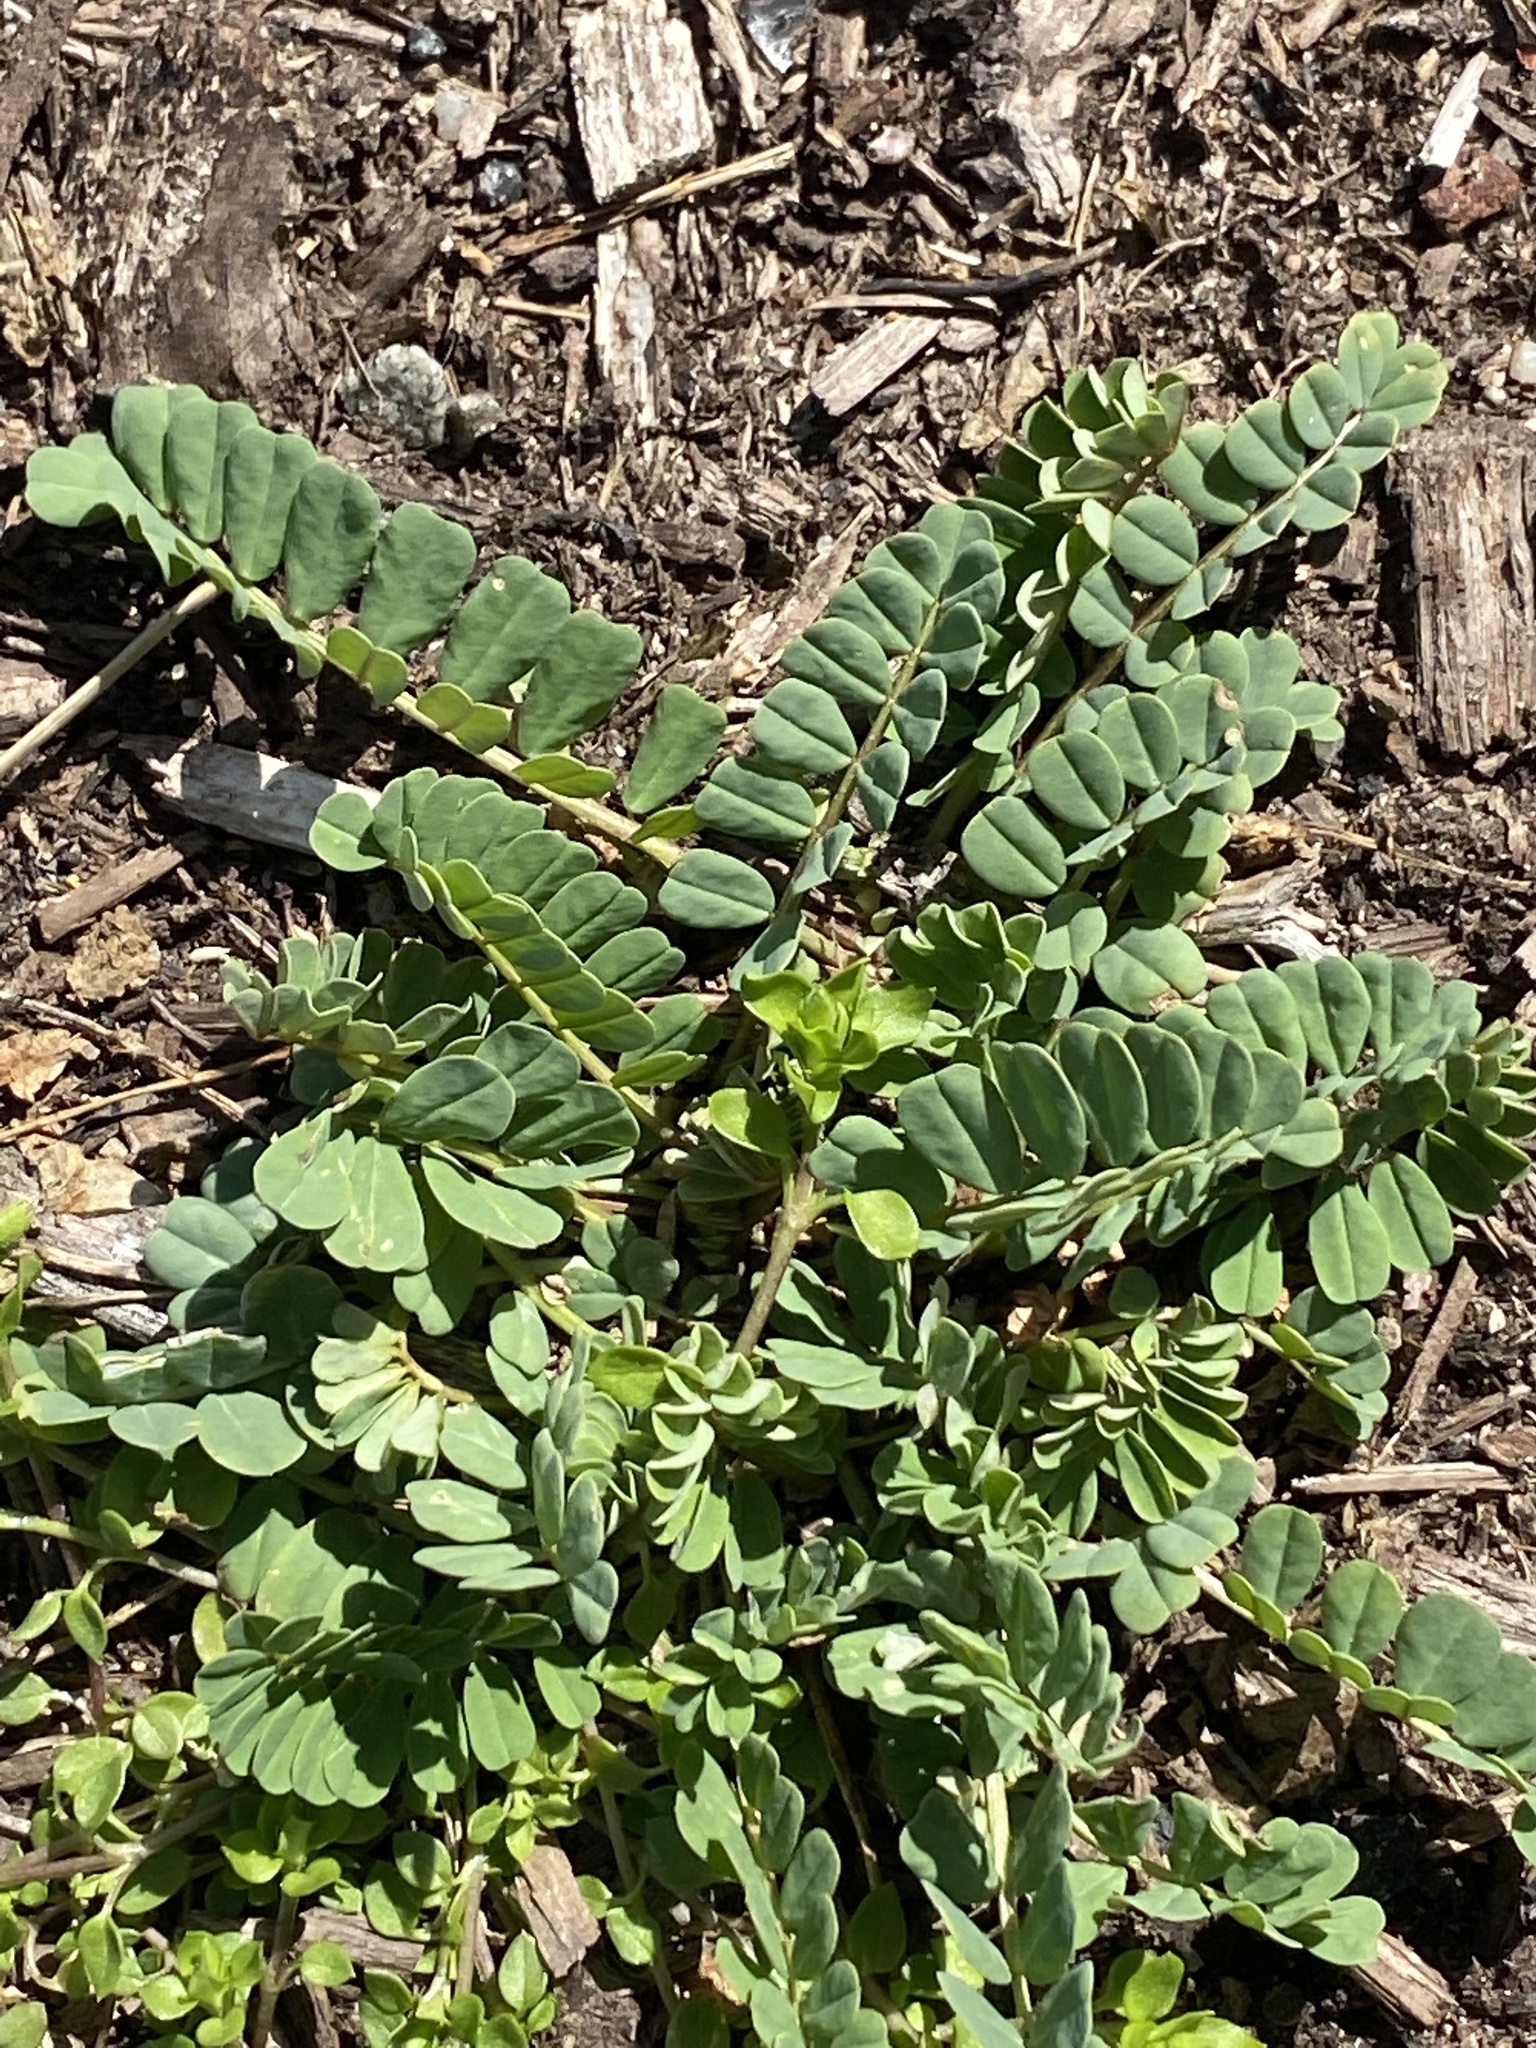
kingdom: Plantae
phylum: Tracheophyta
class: Magnoliopsida
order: Fabales
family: Fabaceae
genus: Coronilla
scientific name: Coronilla varia
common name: Crownvetch
